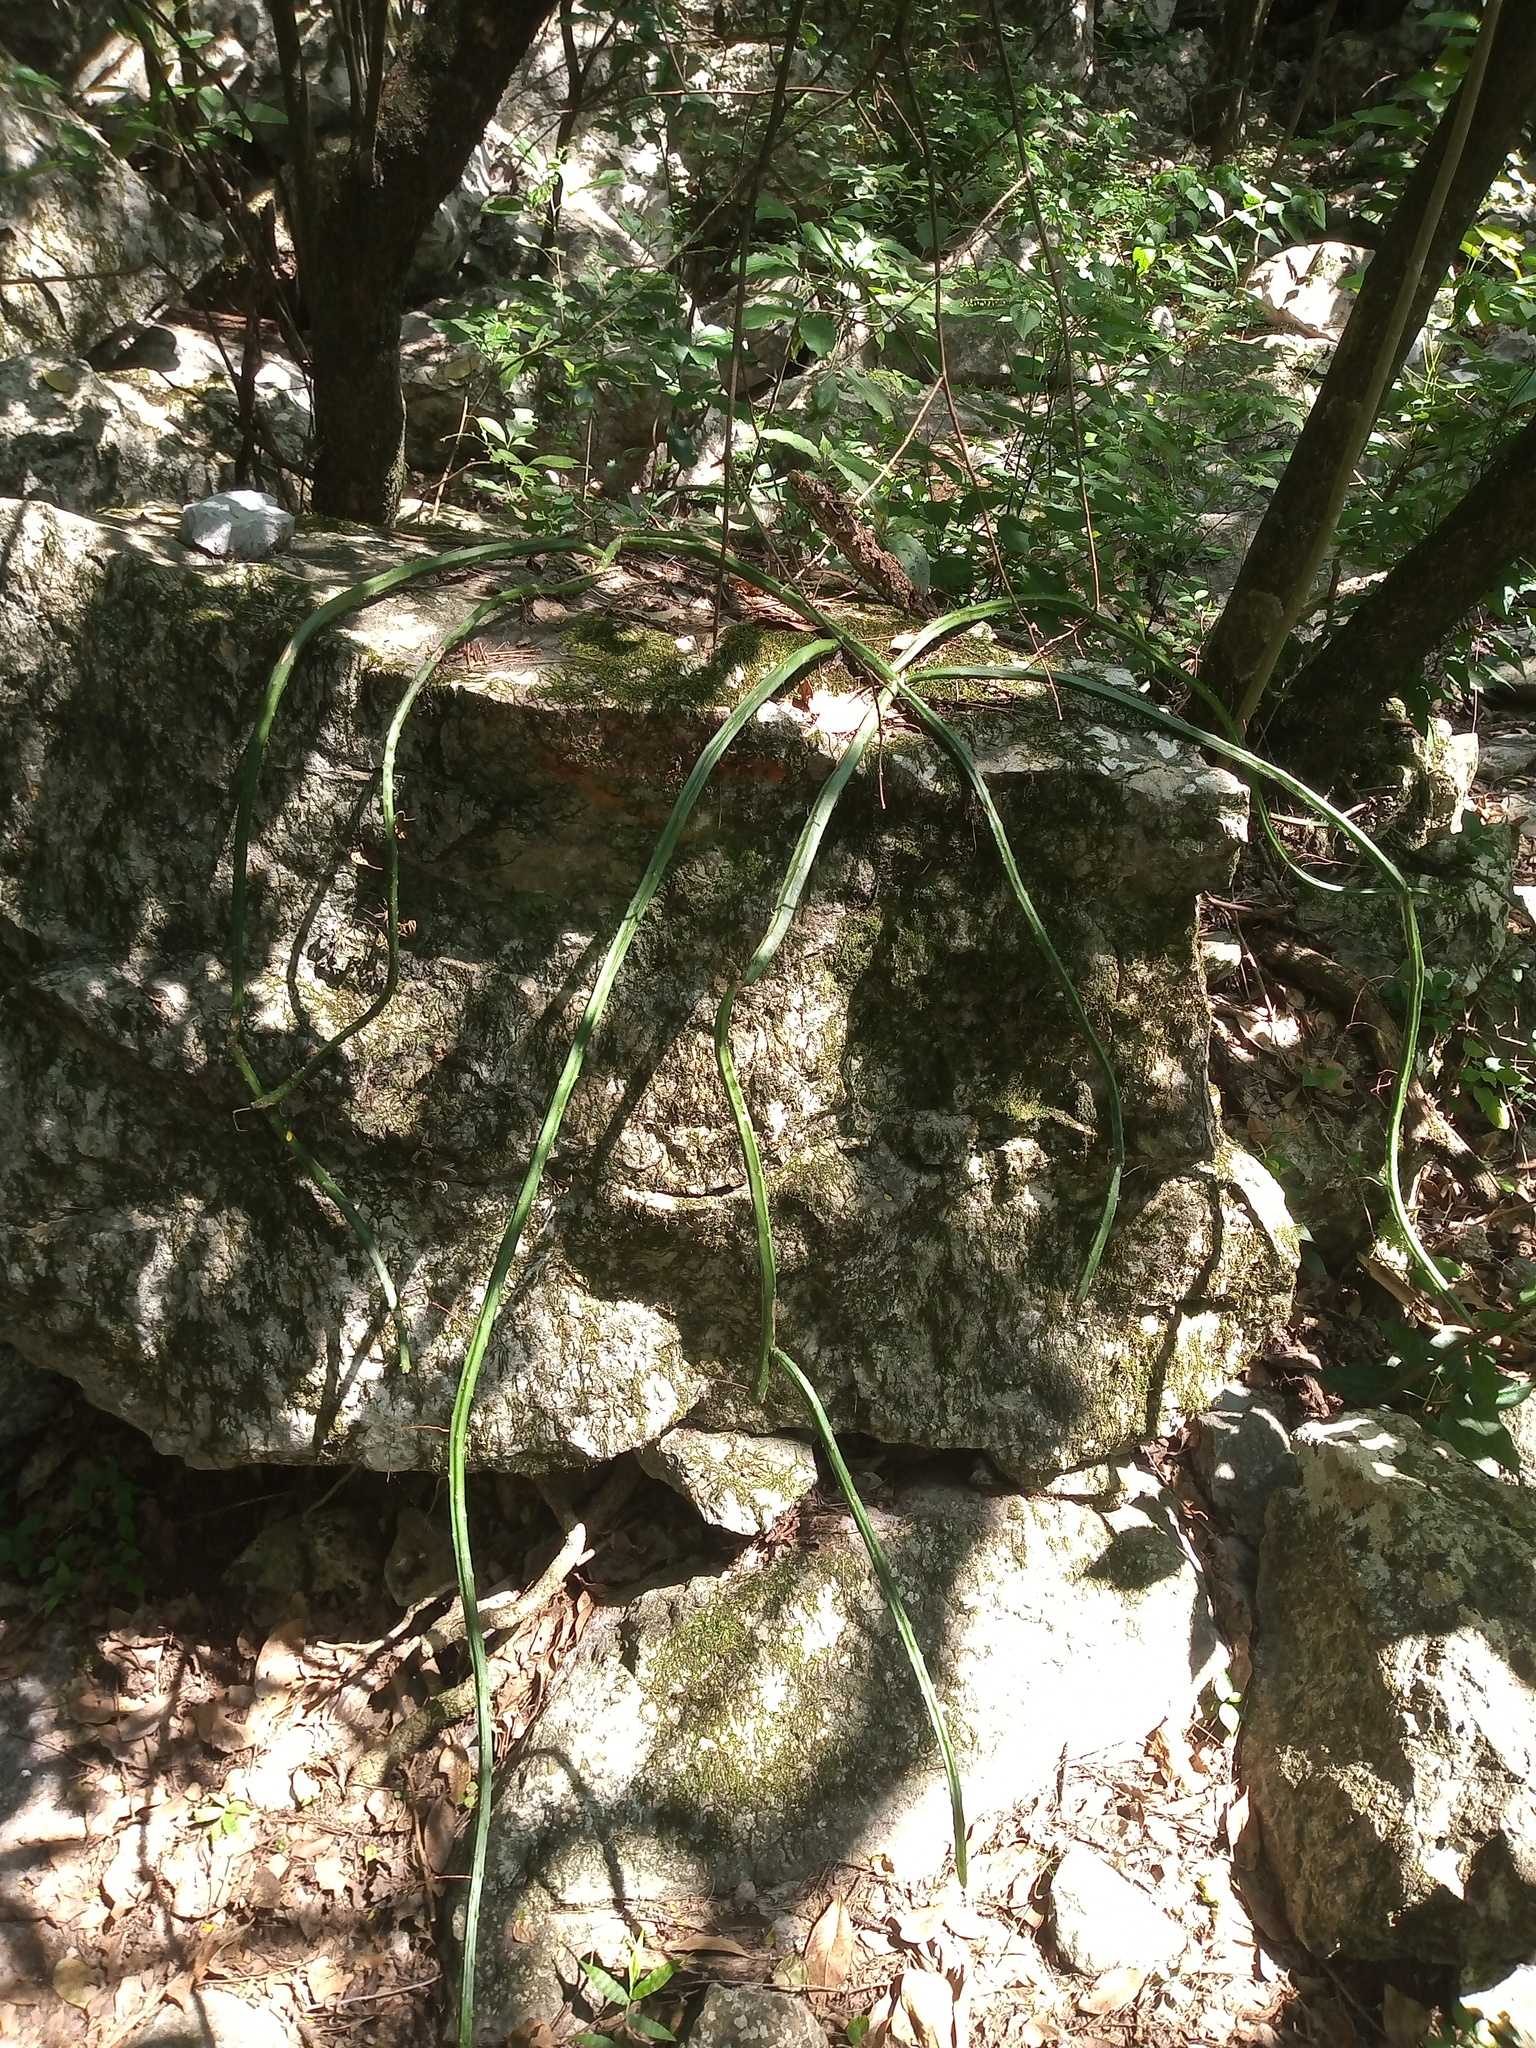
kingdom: Plantae
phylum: Tracheophyta
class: Magnoliopsida
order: Caryophyllales
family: Cactaceae
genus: Selenicereus
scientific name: Selenicereus spinulosus
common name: Nightblooming cereus
